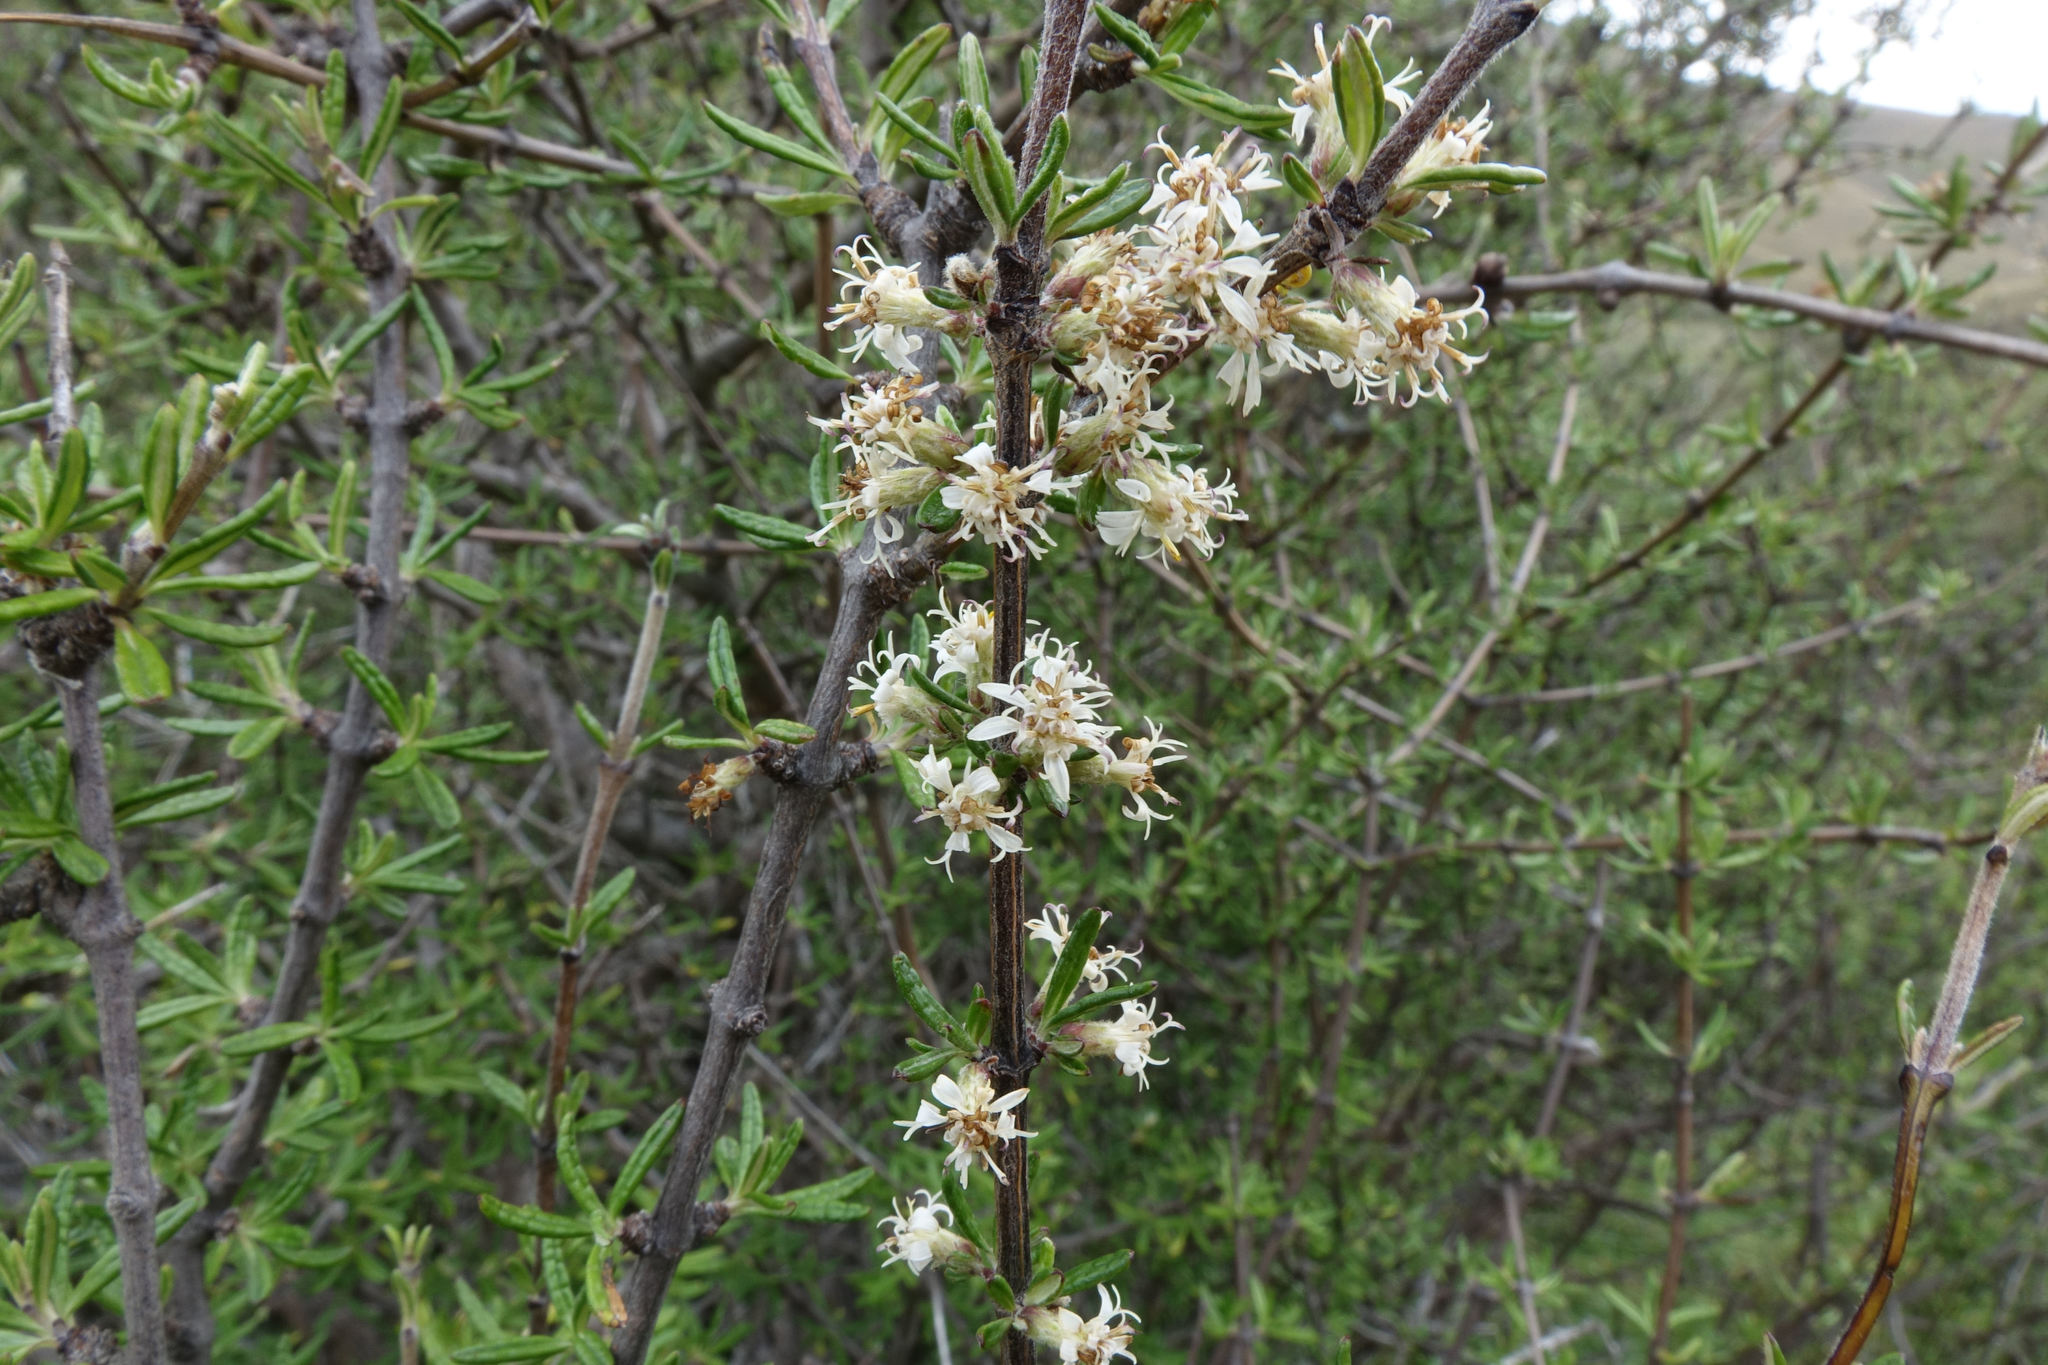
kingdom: Plantae
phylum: Tracheophyta
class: Magnoliopsida
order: Asterales
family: Asteraceae
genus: Olearia
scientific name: Olearia bullata
